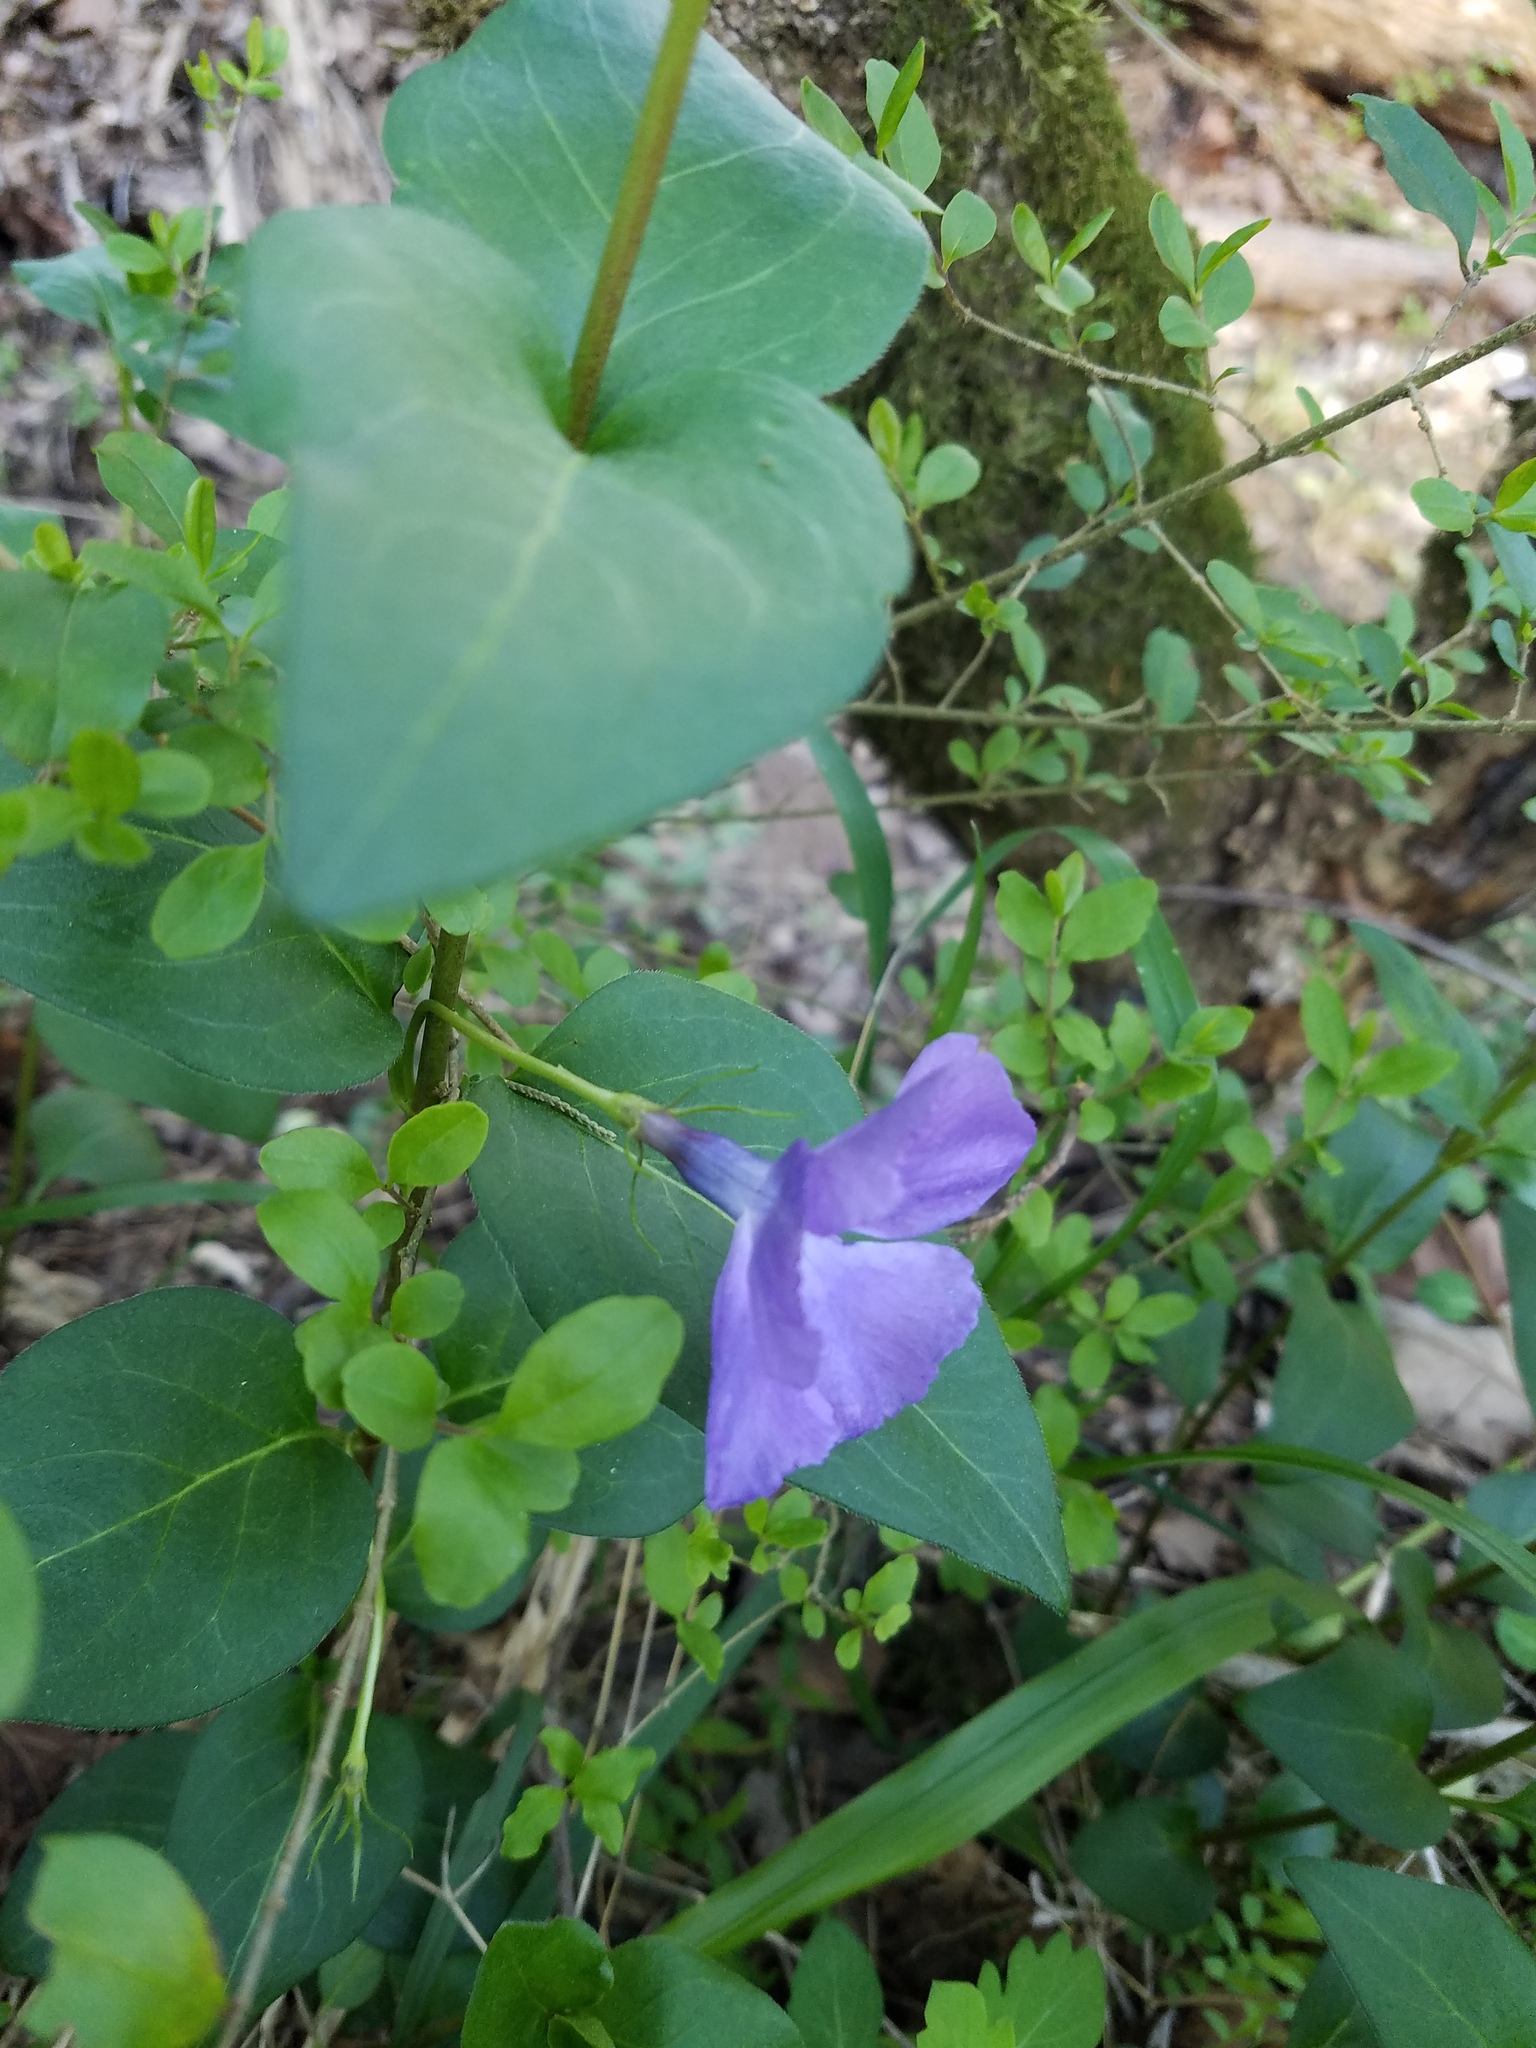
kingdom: Plantae
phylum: Tracheophyta
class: Magnoliopsida
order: Gentianales
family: Apocynaceae
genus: Vinca
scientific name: Vinca major
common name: Greater periwinkle
